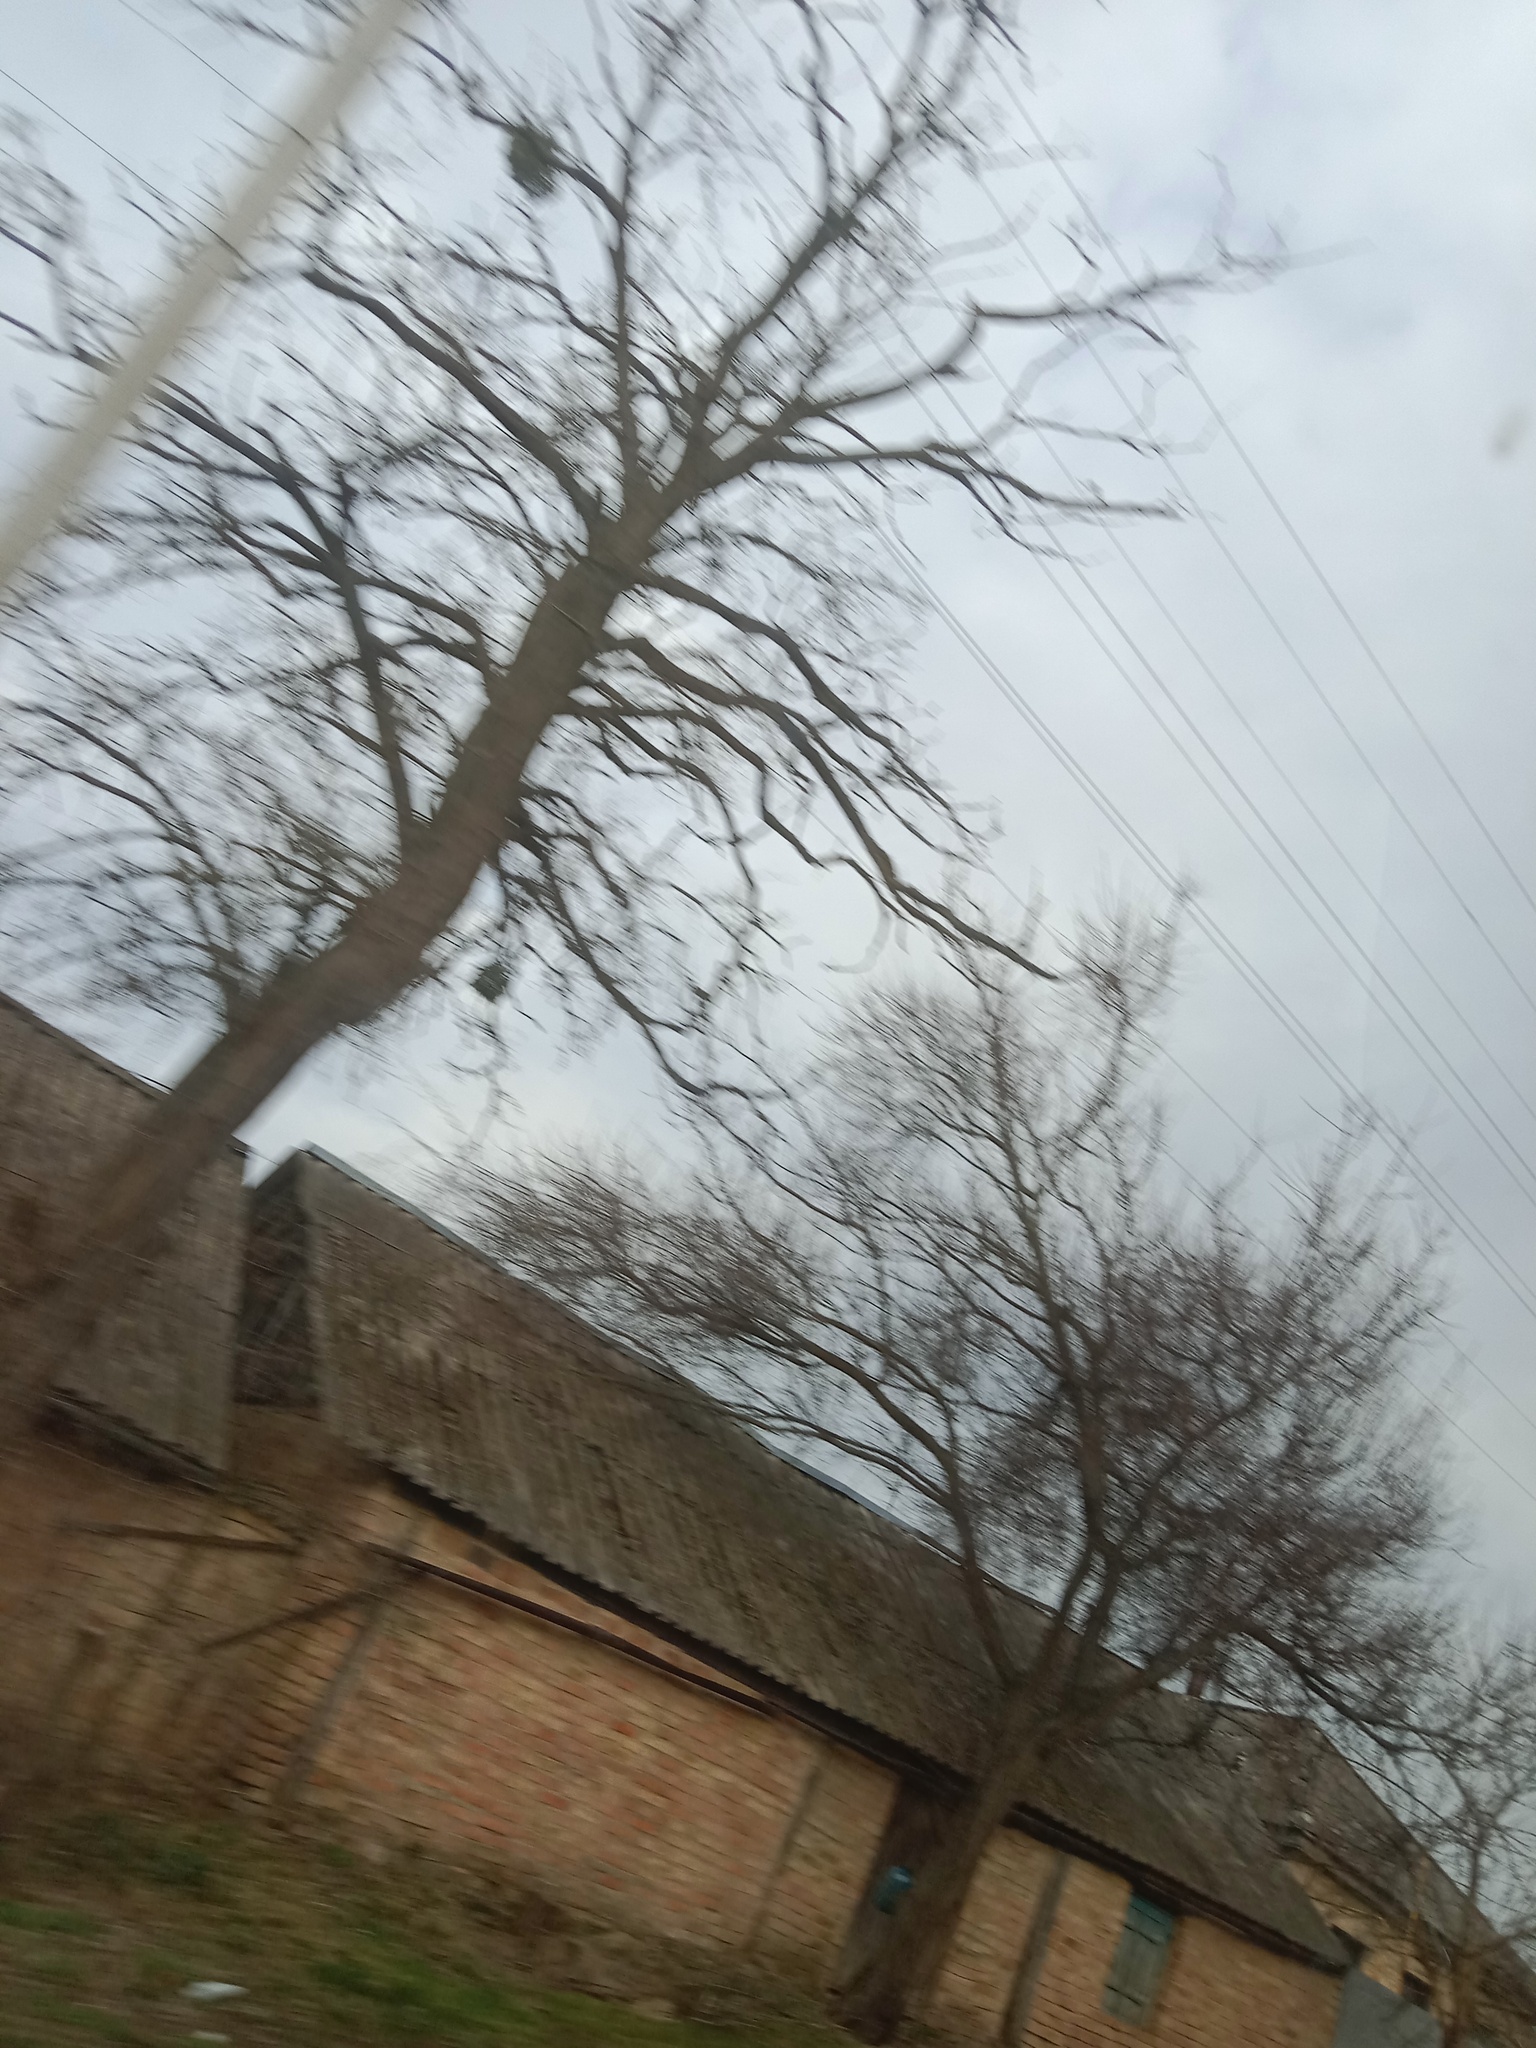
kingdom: Plantae
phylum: Tracheophyta
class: Magnoliopsida
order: Santalales
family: Viscaceae
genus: Viscum
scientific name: Viscum album
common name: Mistletoe
